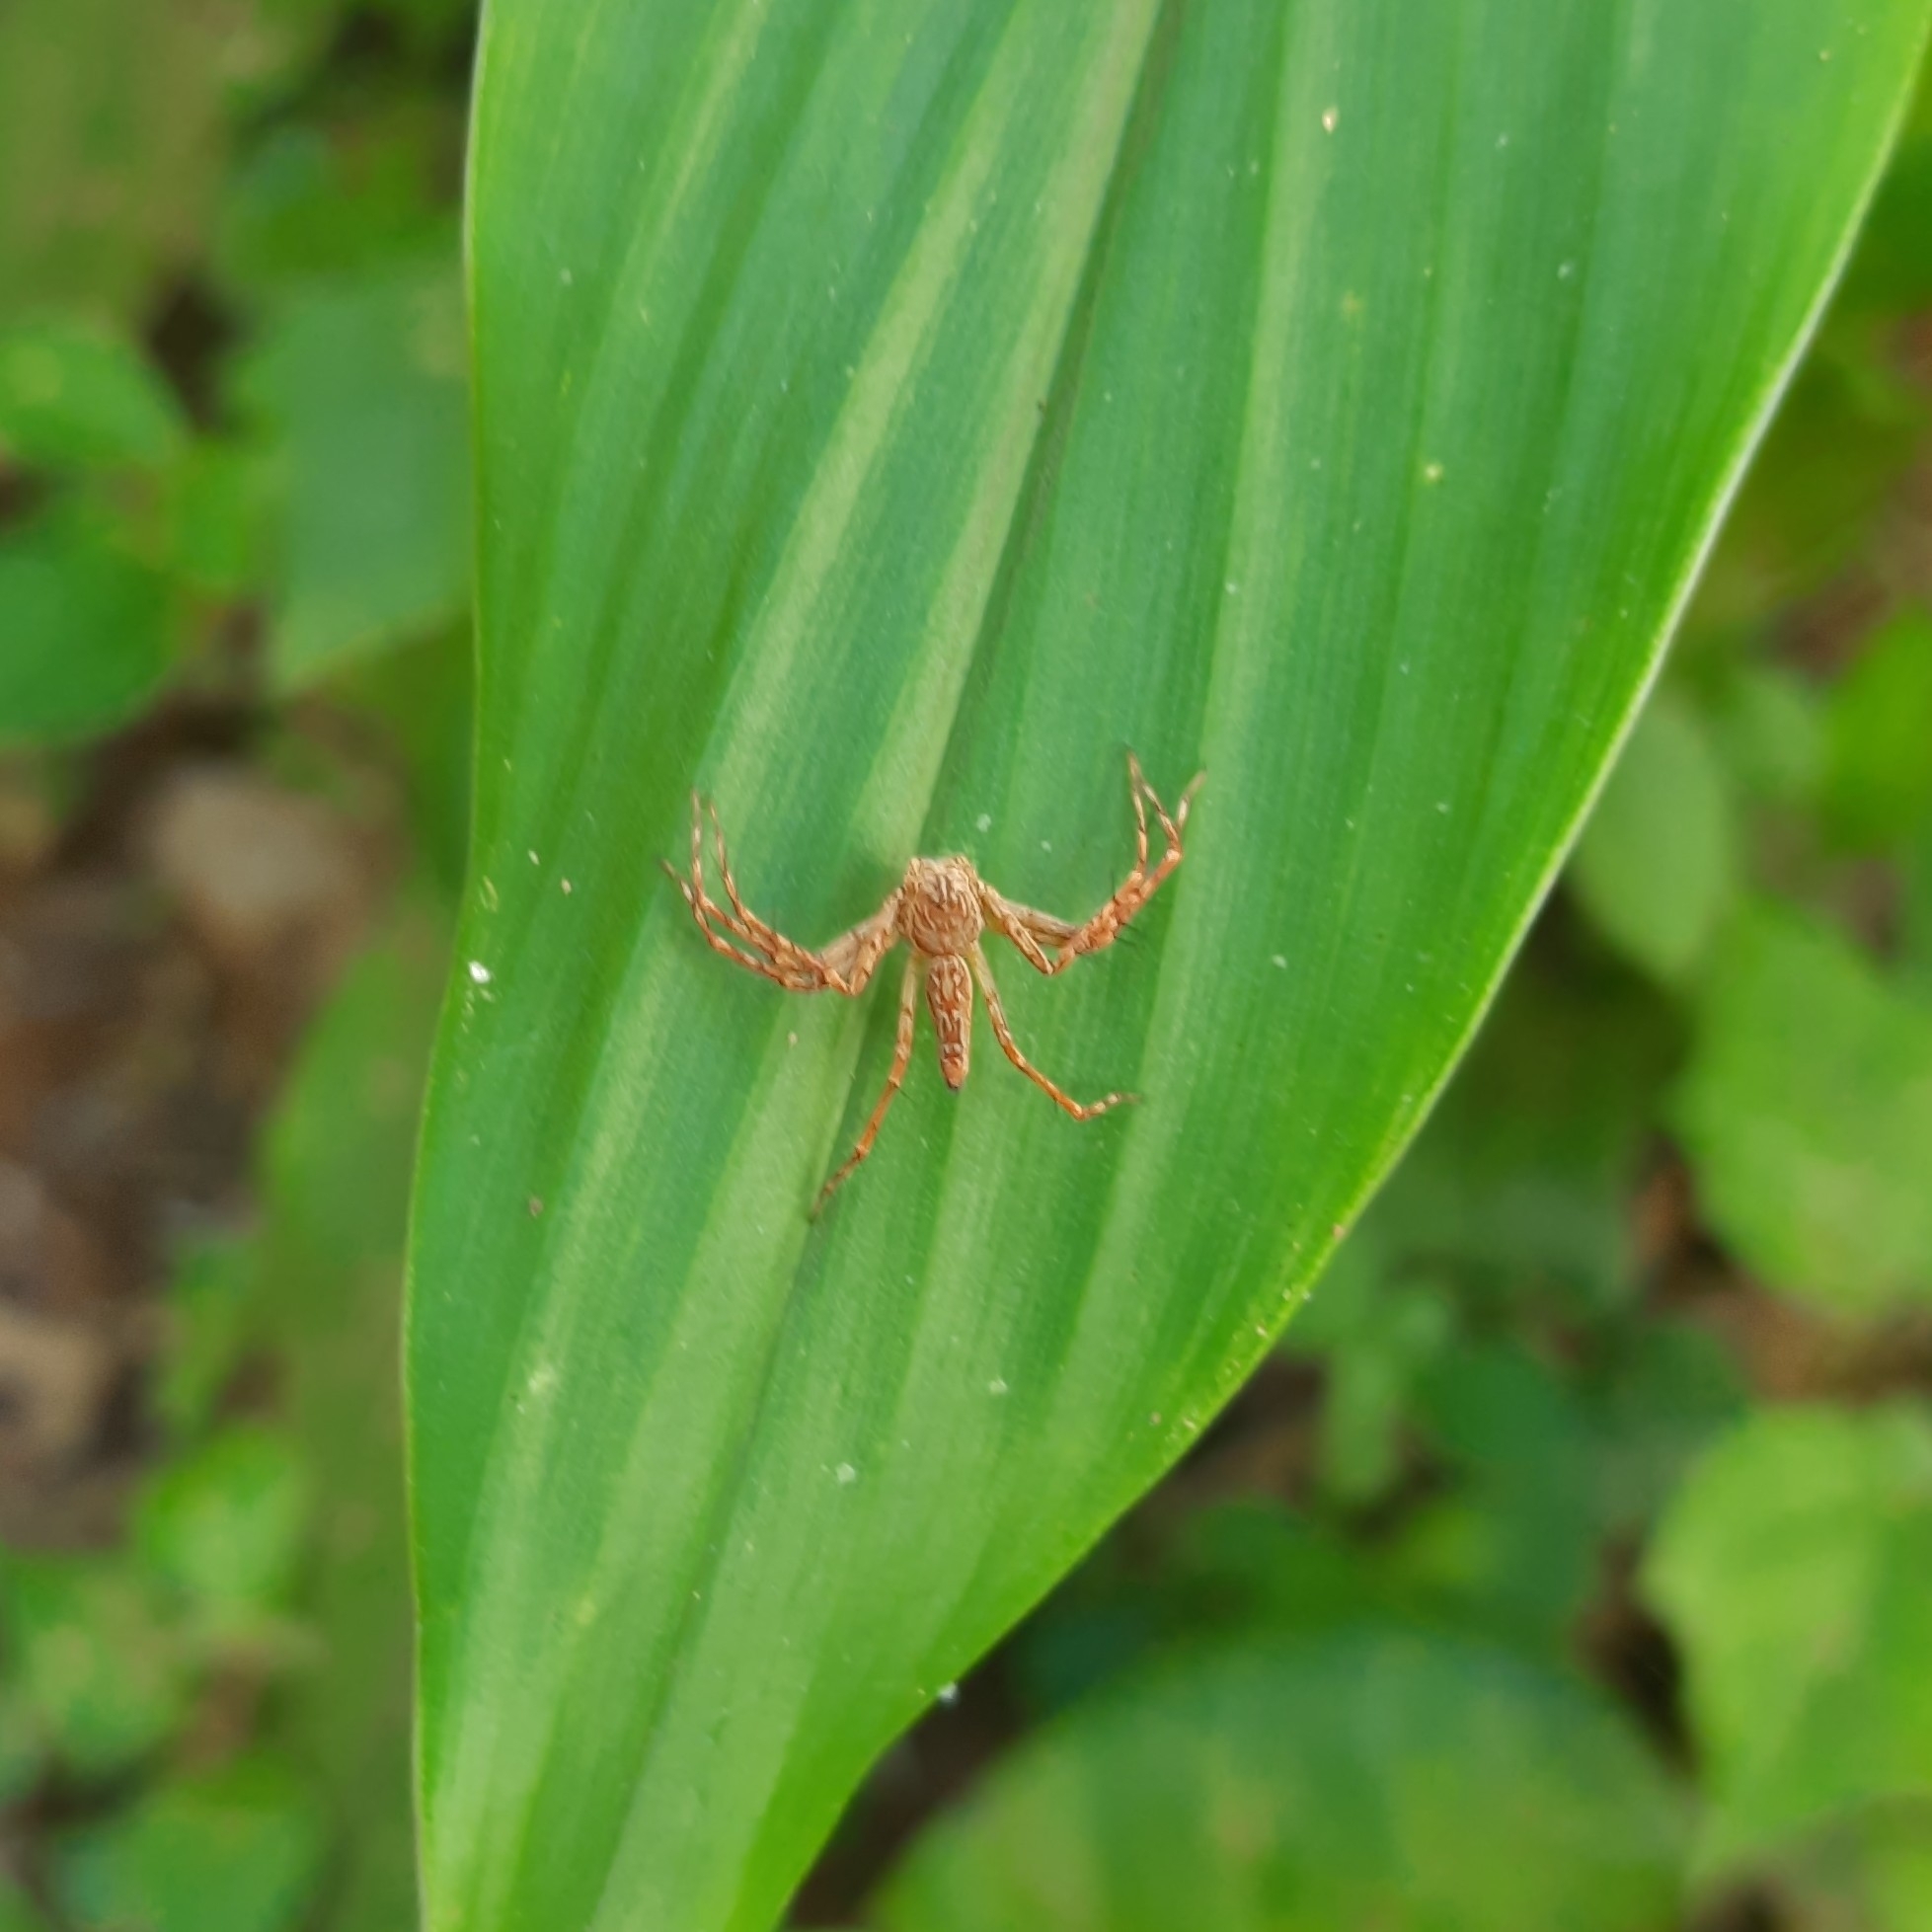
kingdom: Animalia
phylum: Arthropoda
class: Arachnida
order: Araneae
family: Oxyopidae
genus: Hamadruas
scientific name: Hamadruas hieroglyphica
